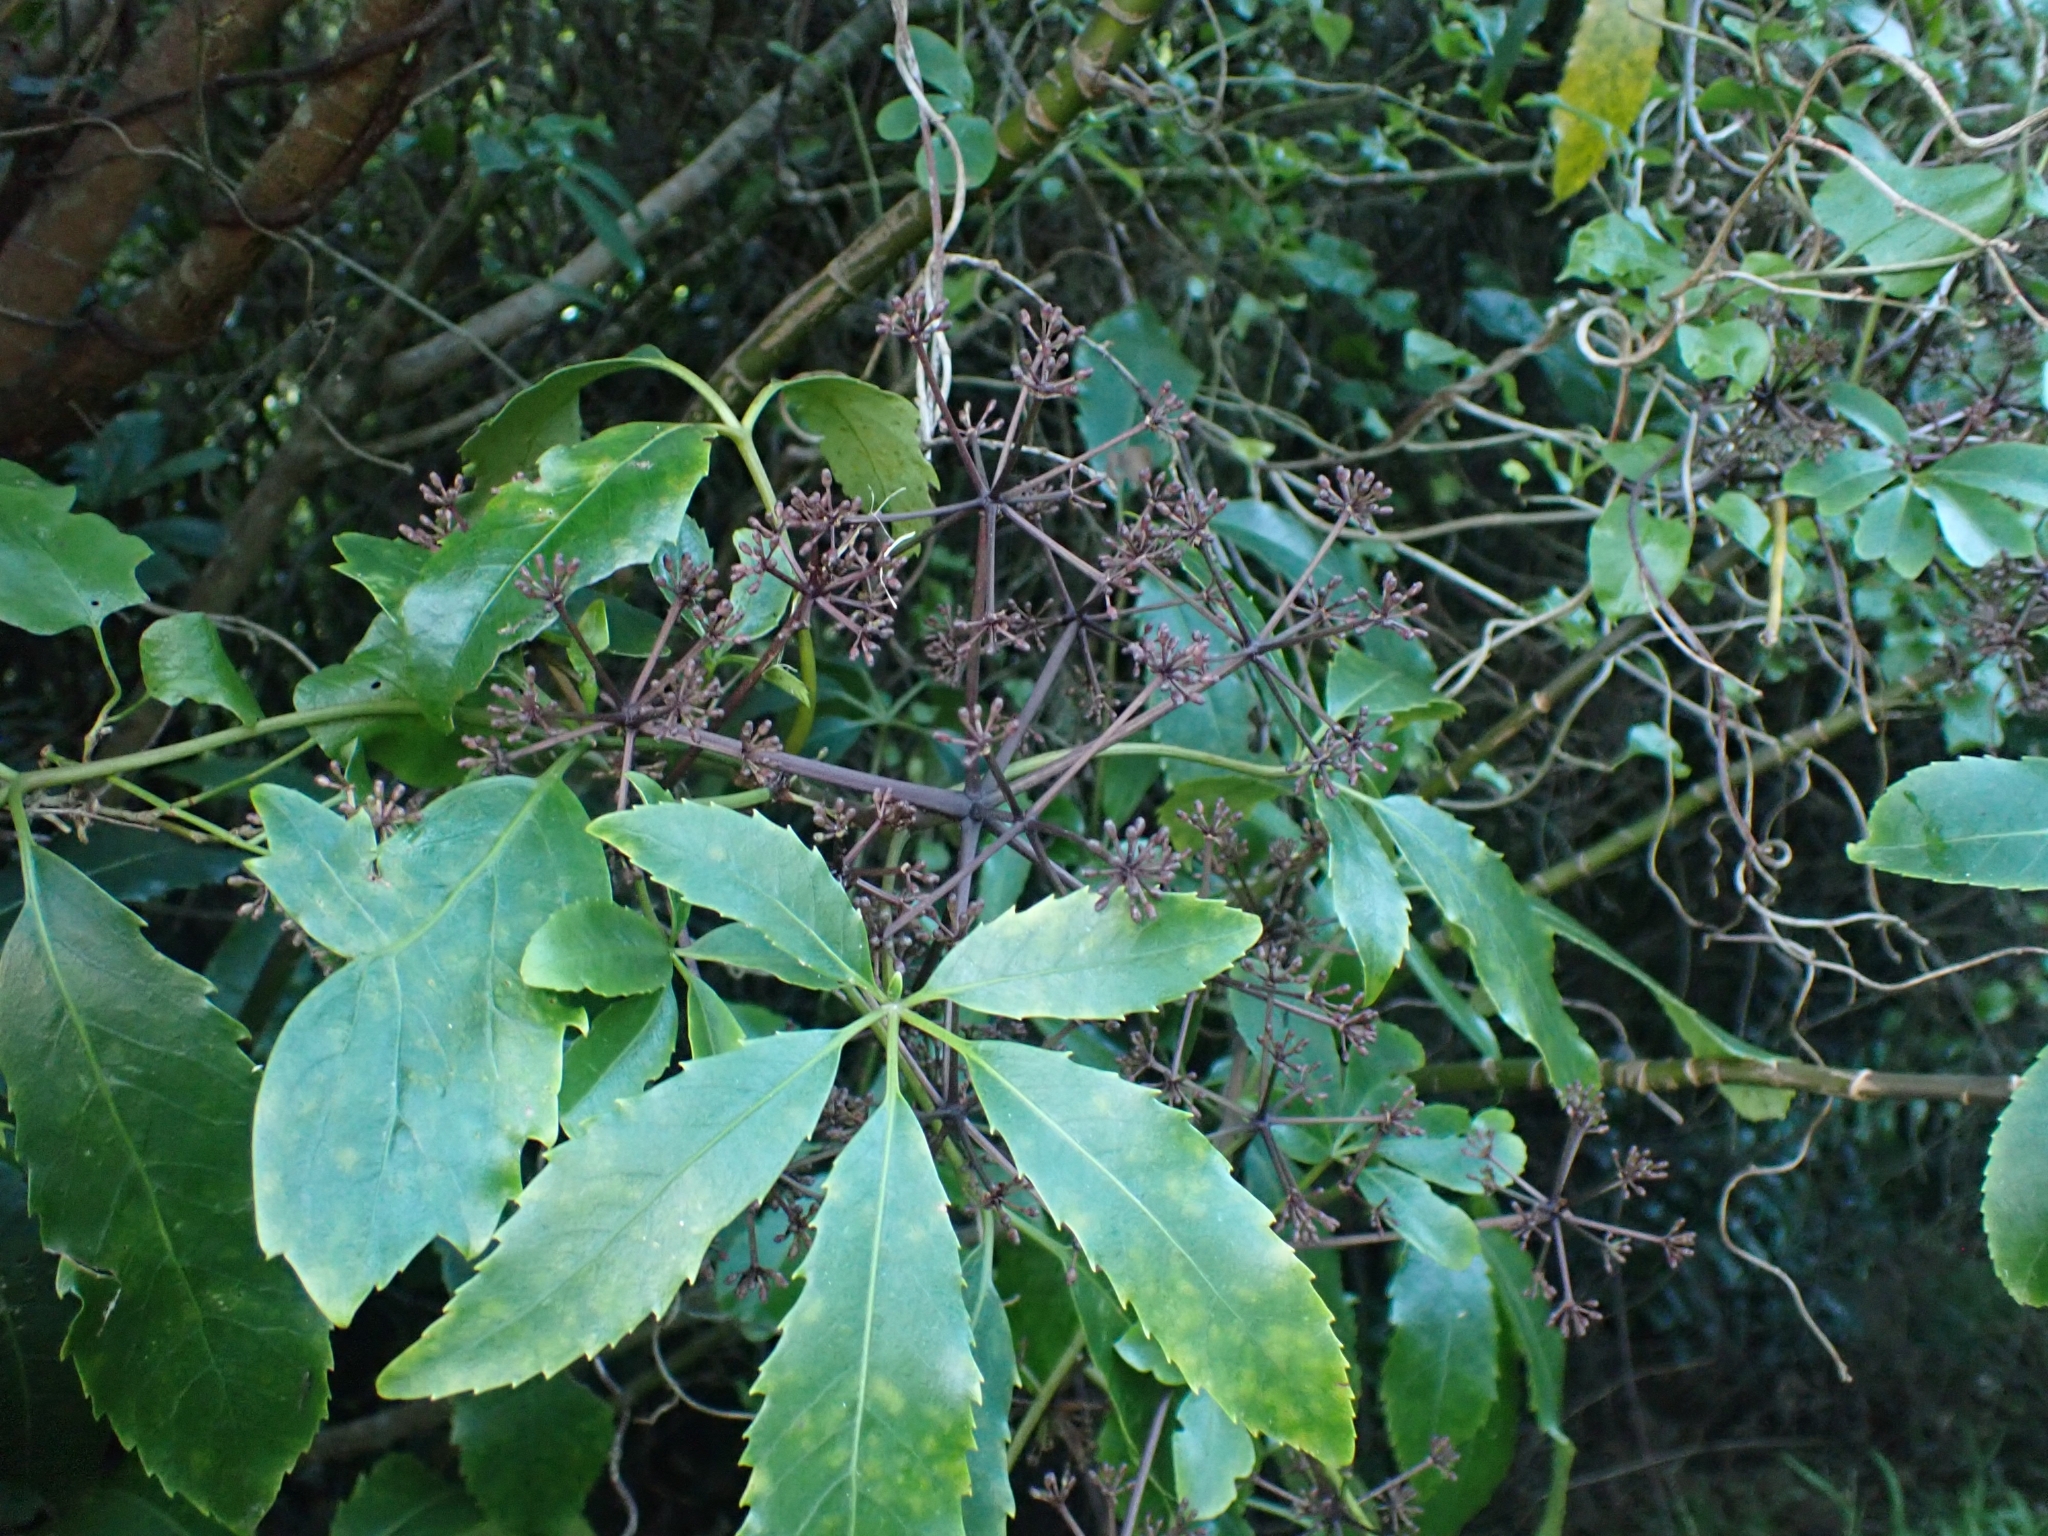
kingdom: Plantae
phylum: Tracheophyta
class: Magnoliopsida
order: Apiales
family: Araliaceae
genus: Neopanax
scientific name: Neopanax arboreus
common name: Five-fingers
